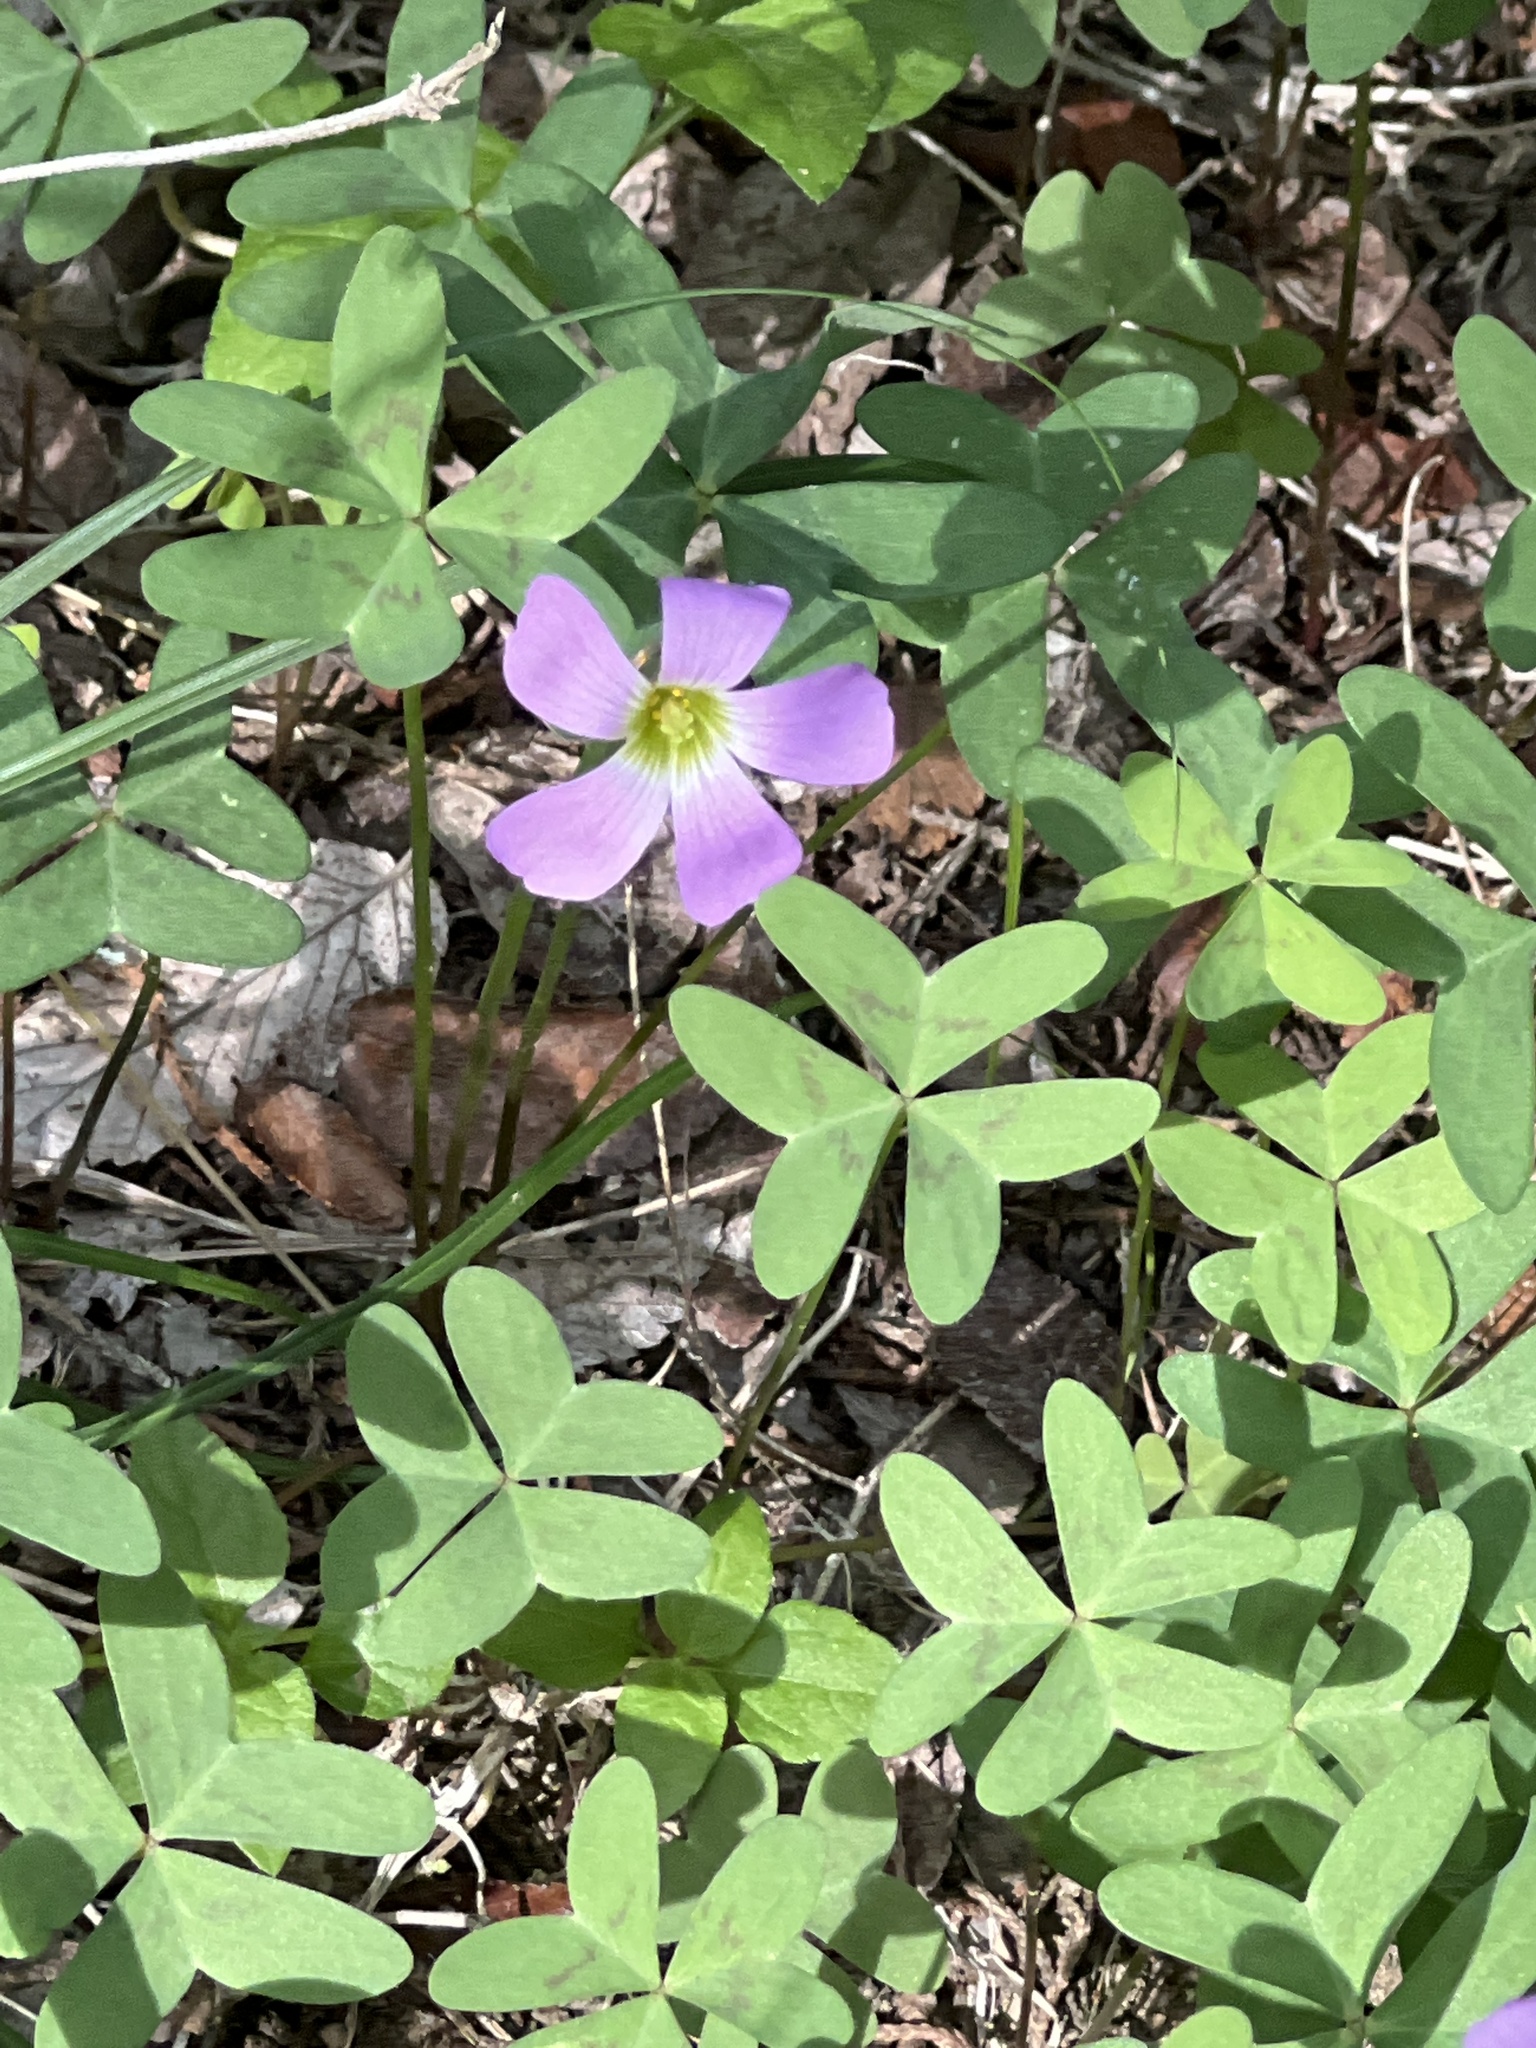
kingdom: Plantae
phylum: Tracheophyta
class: Magnoliopsida
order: Oxalidales
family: Oxalidaceae
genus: Oxalis
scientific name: Oxalis drummondii
